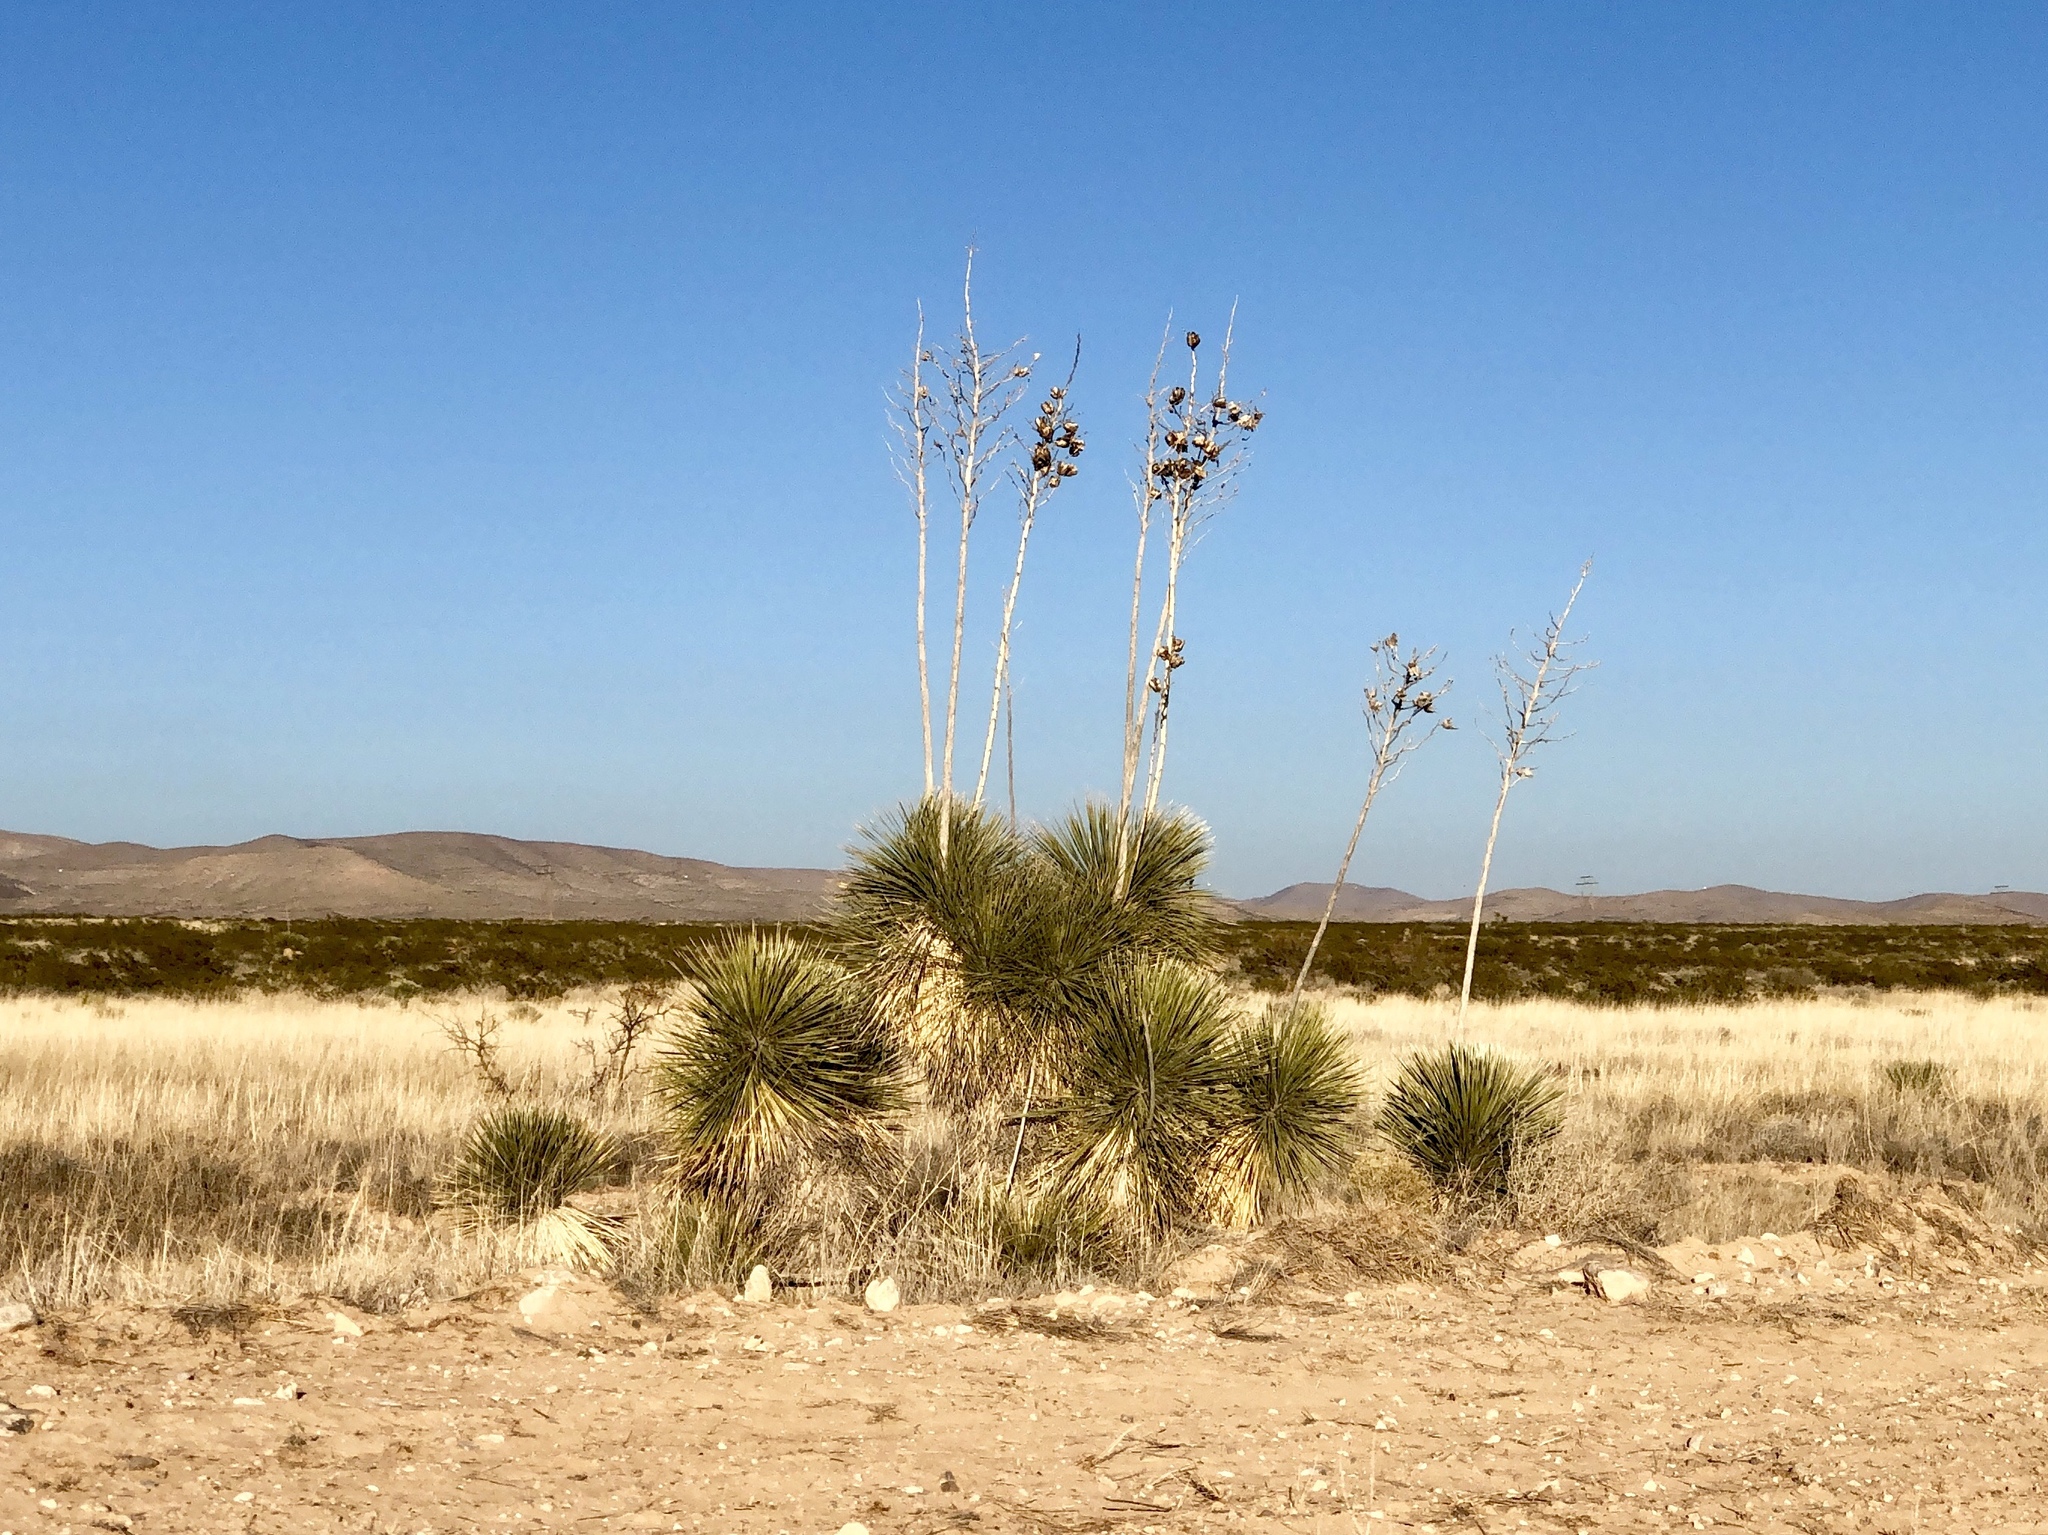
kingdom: Plantae
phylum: Tracheophyta
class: Liliopsida
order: Asparagales
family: Asparagaceae
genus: Yucca
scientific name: Yucca elata
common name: Palmella
